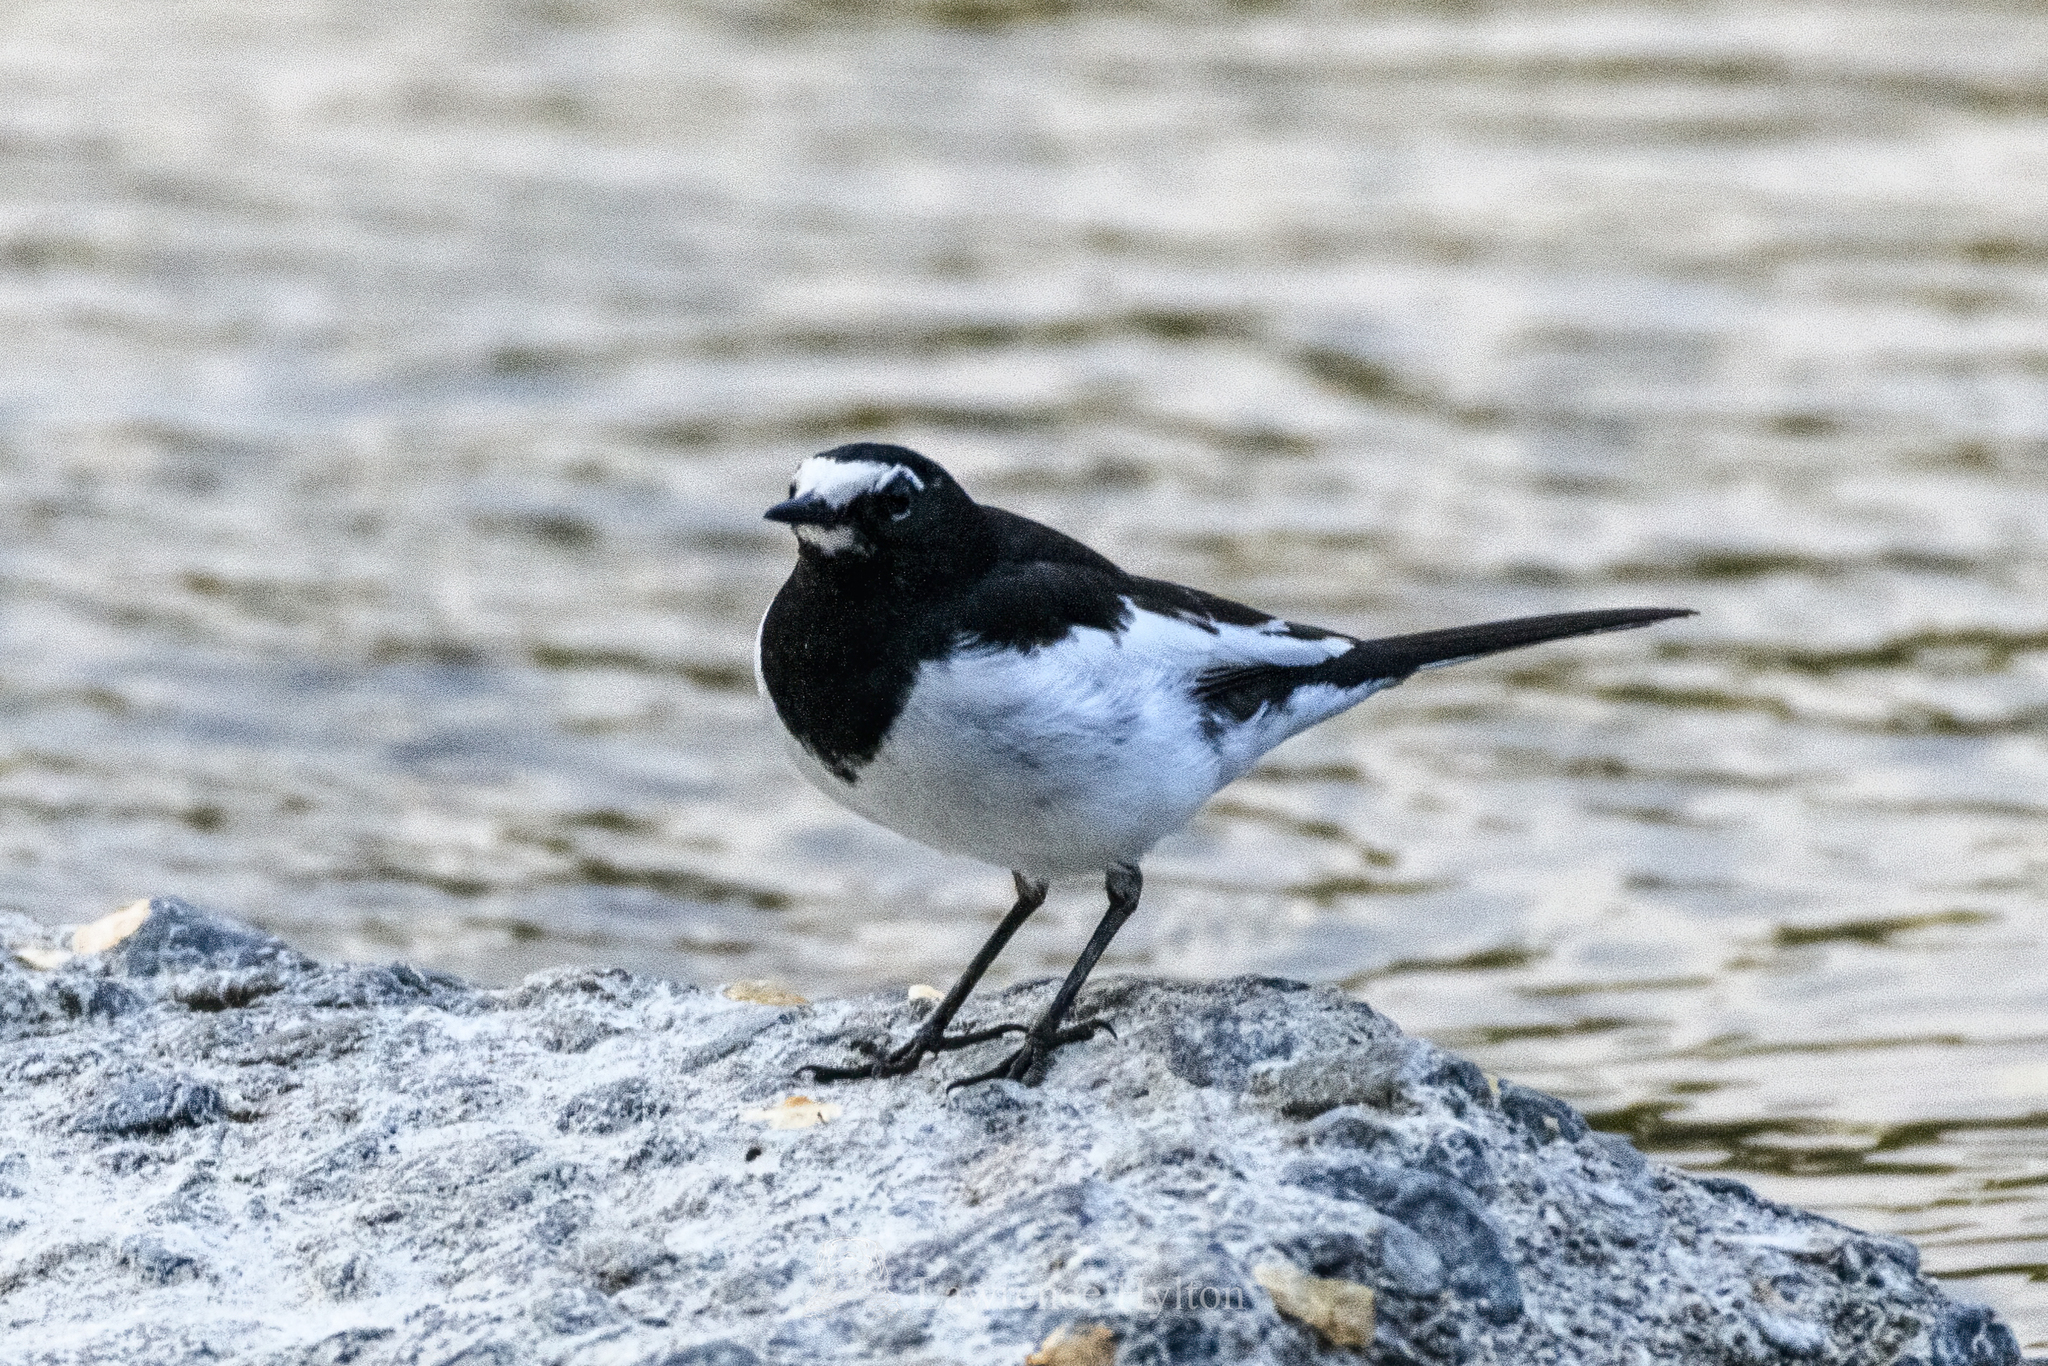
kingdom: Animalia
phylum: Chordata
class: Aves
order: Passeriformes
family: Motacillidae
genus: Motacilla
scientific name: Motacilla grandis
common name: Japanese wagtail
